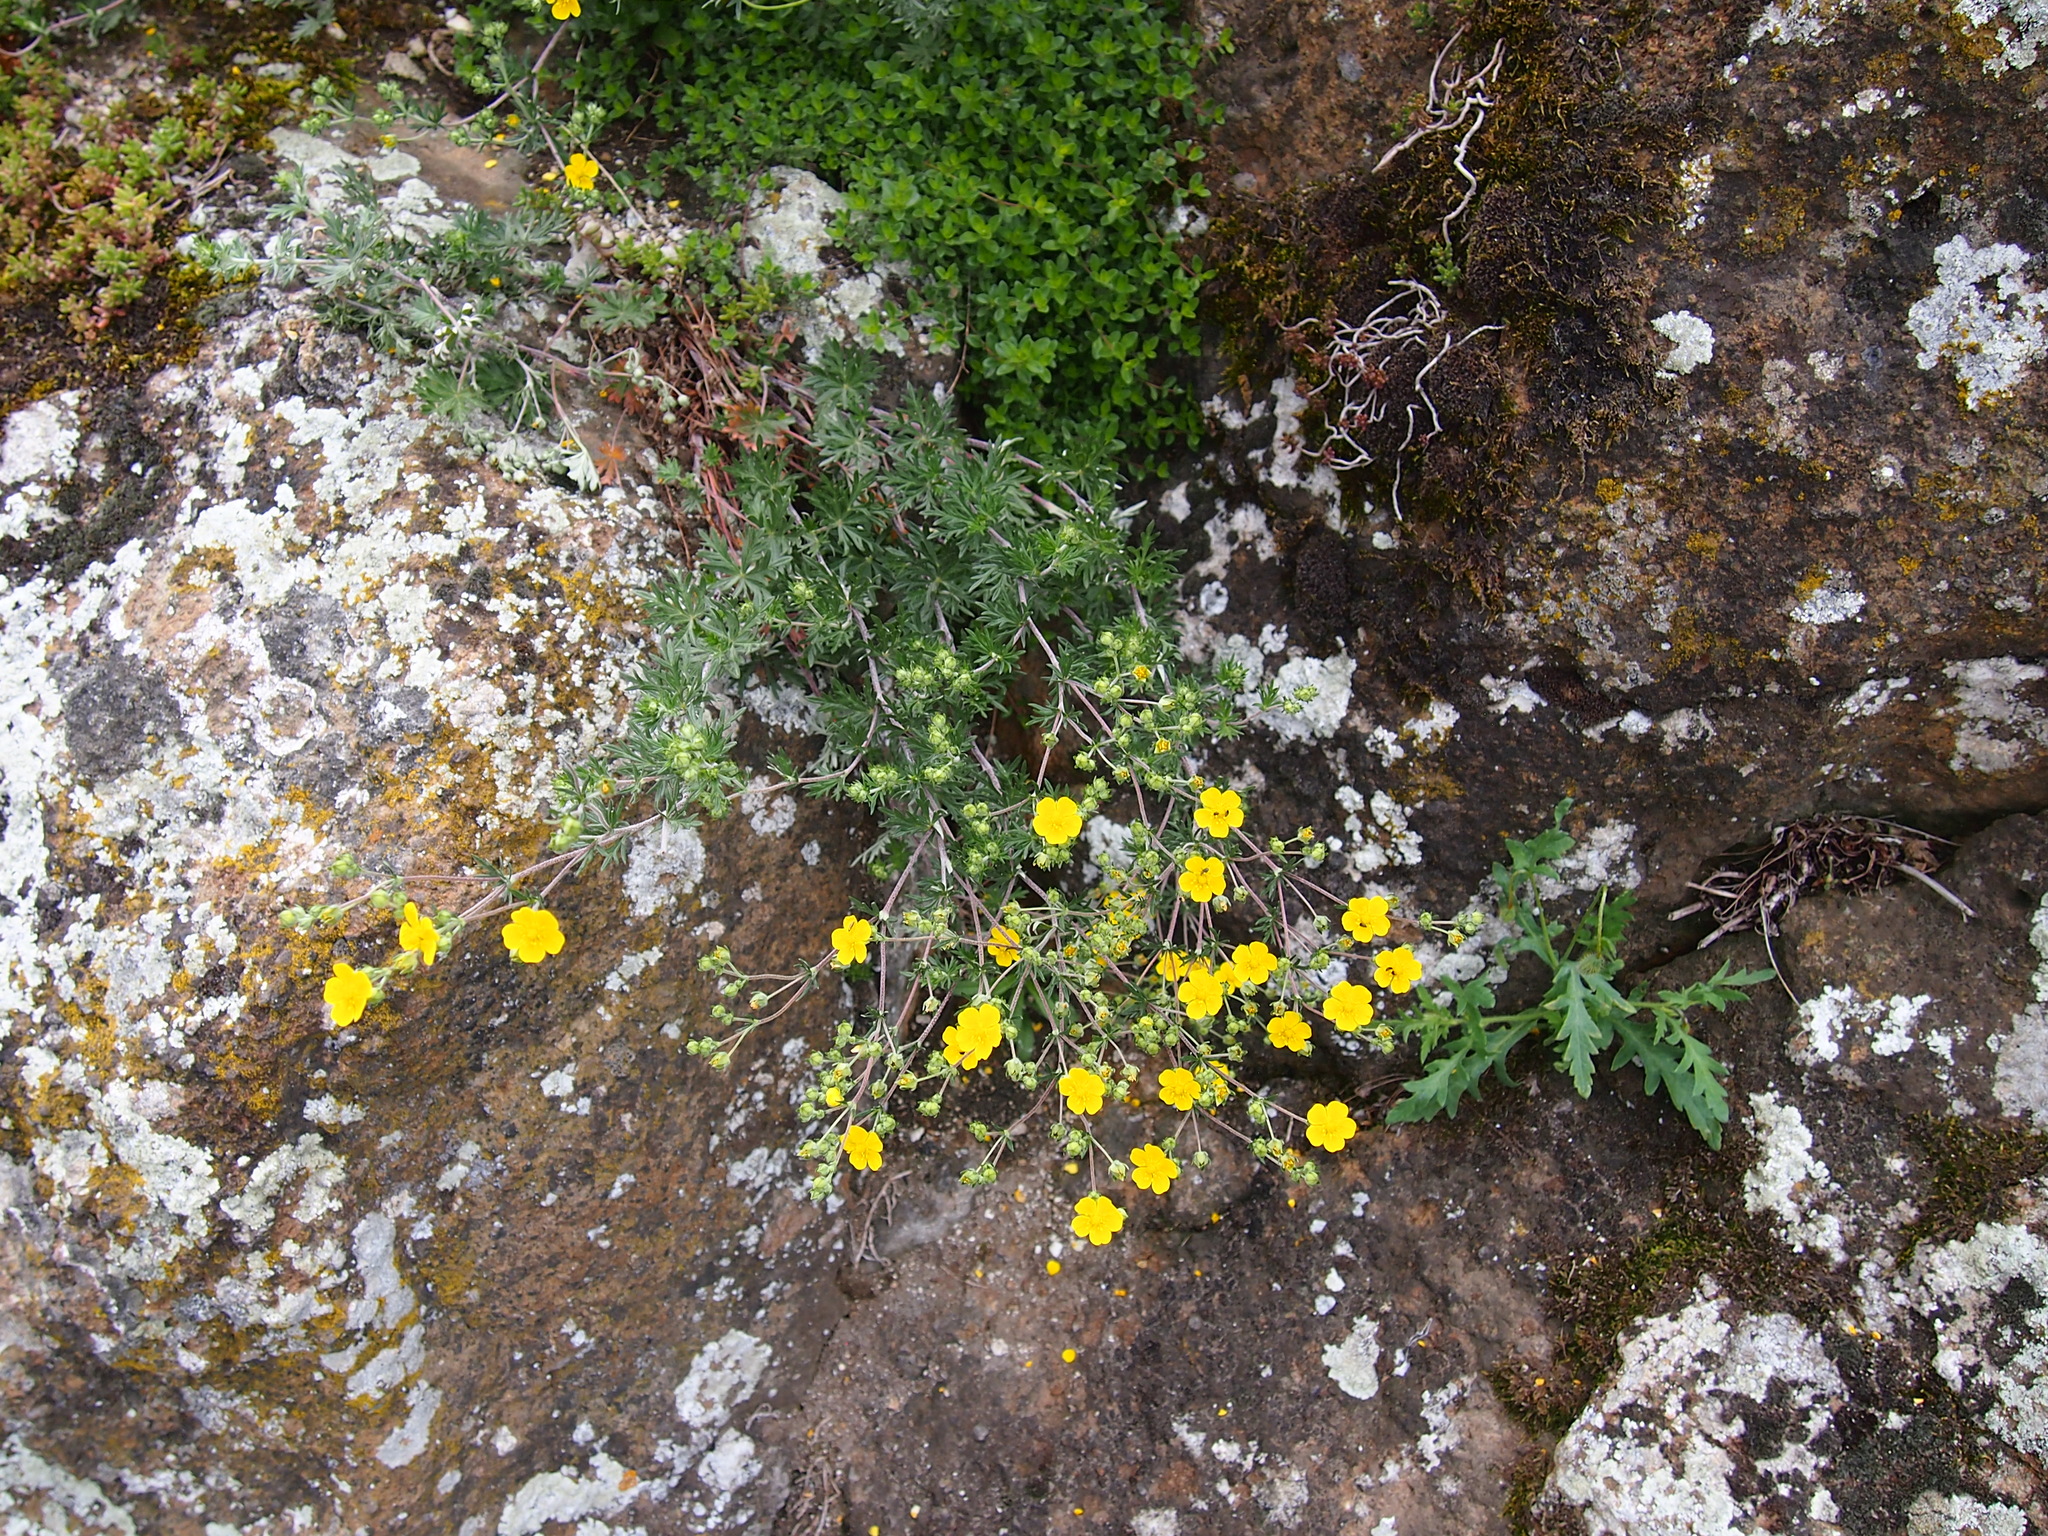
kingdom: Plantae
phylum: Tracheophyta
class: Magnoliopsida
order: Rosales
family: Rosaceae
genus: Potentilla
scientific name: Potentilla argentea
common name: Hoary cinquefoil
